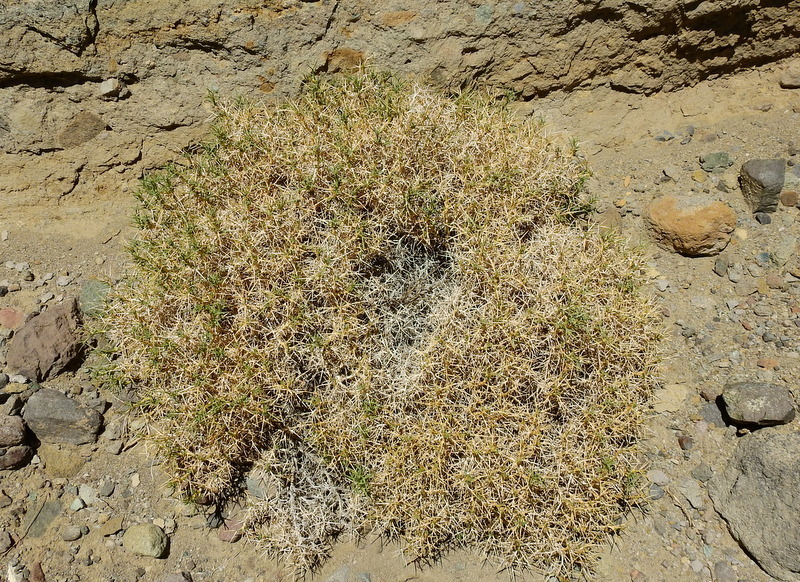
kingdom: Plantae
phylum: Tracheophyta
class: Magnoliopsida
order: Apiales
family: Apiaceae
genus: Azorella
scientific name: Azorella prolifera
